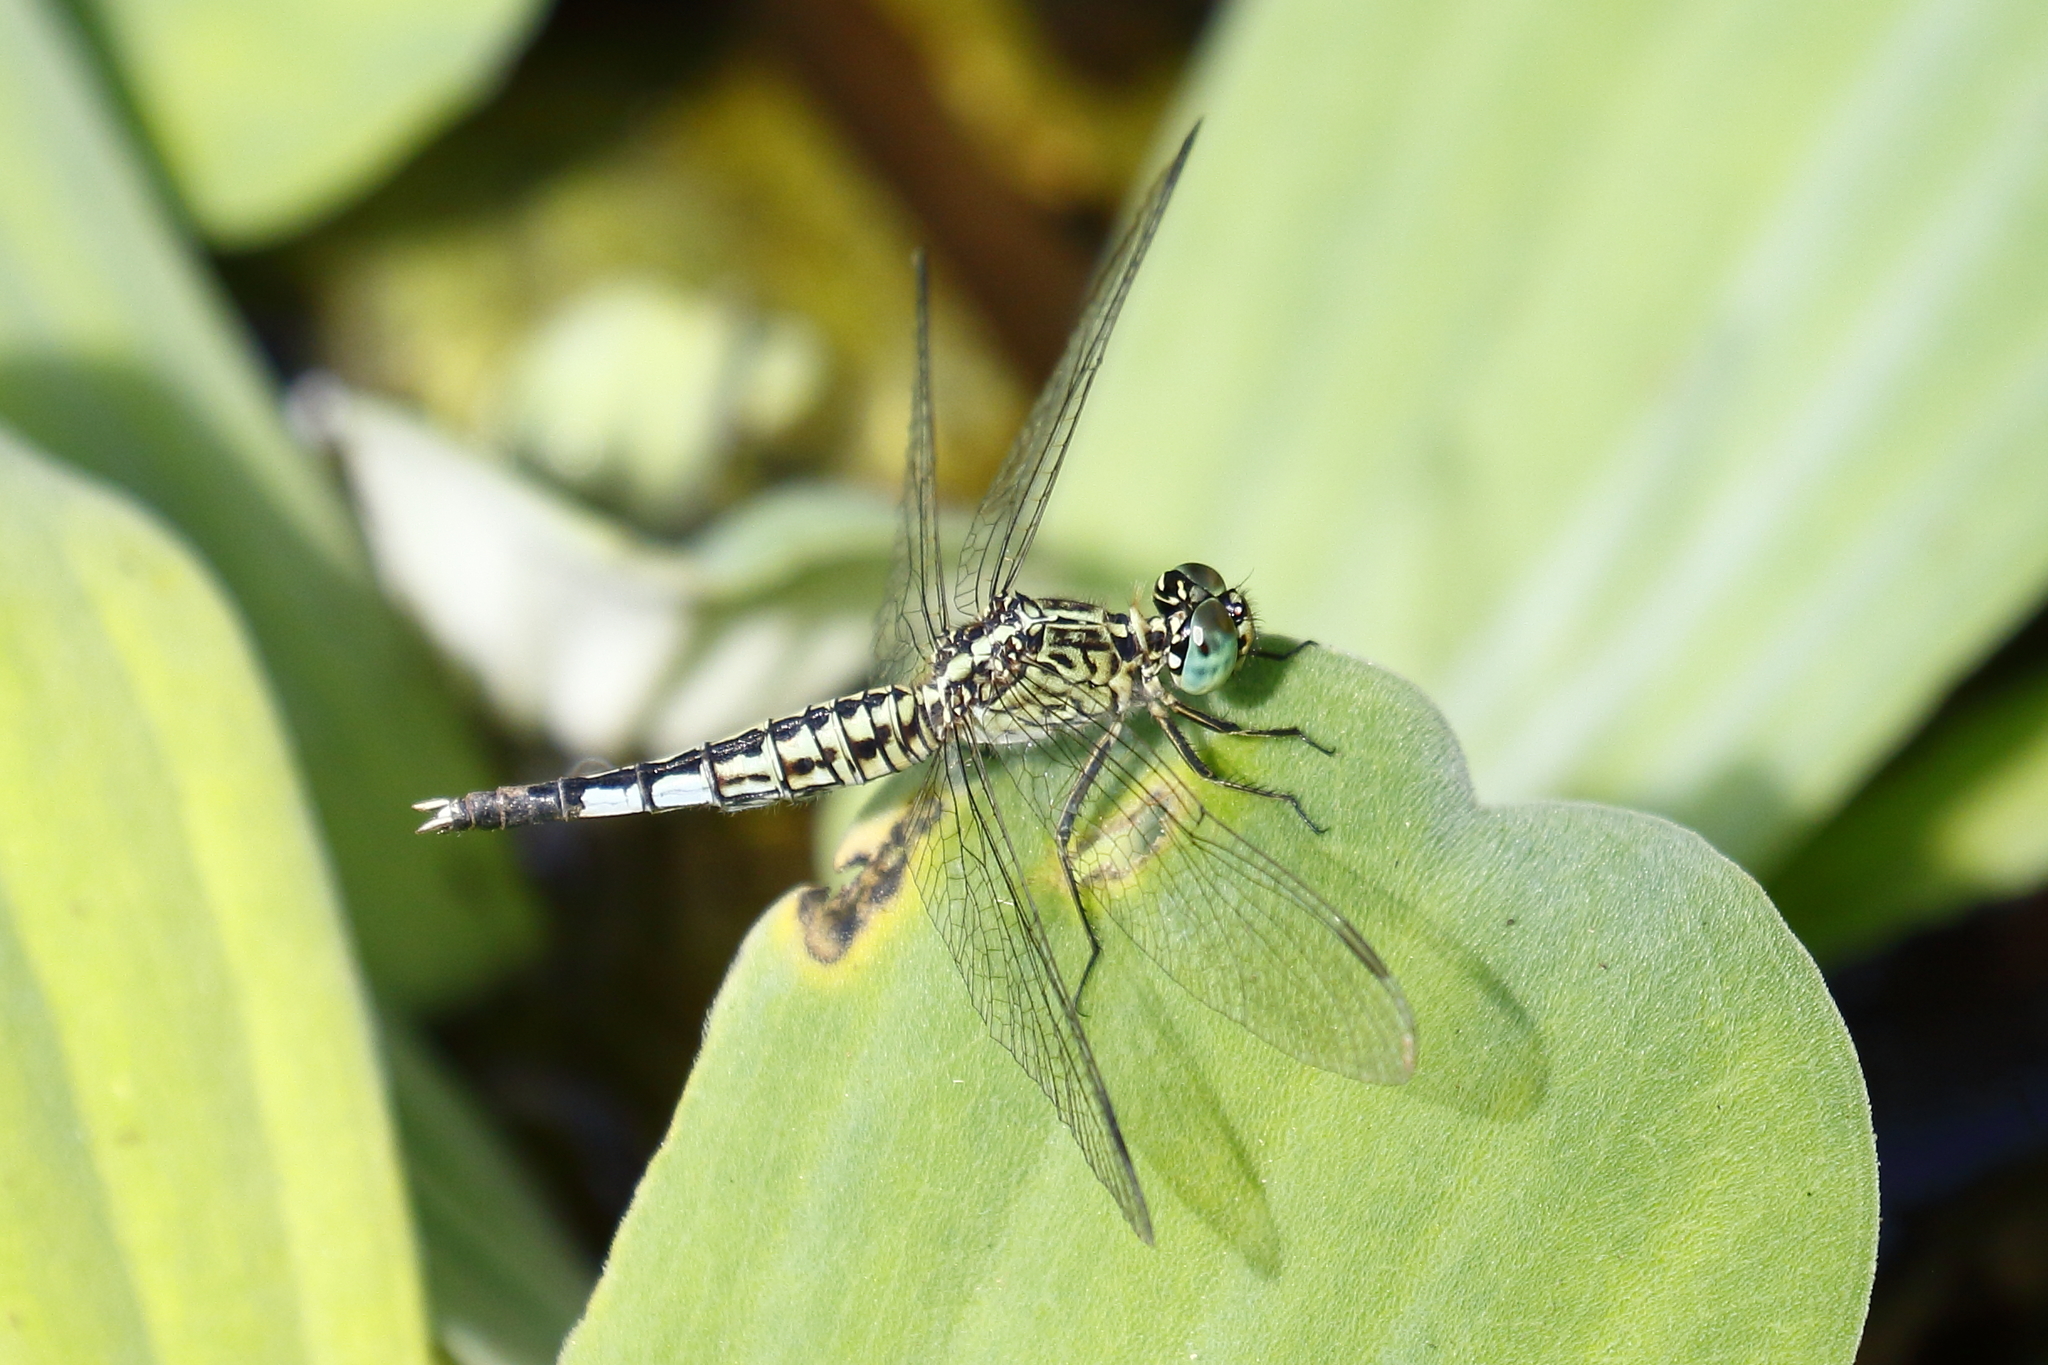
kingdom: Animalia
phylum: Arthropoda
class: Insecta
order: Odonata
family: Libellulidae
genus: Acisoma
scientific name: Acisoma panorpoides
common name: Asian pintail
